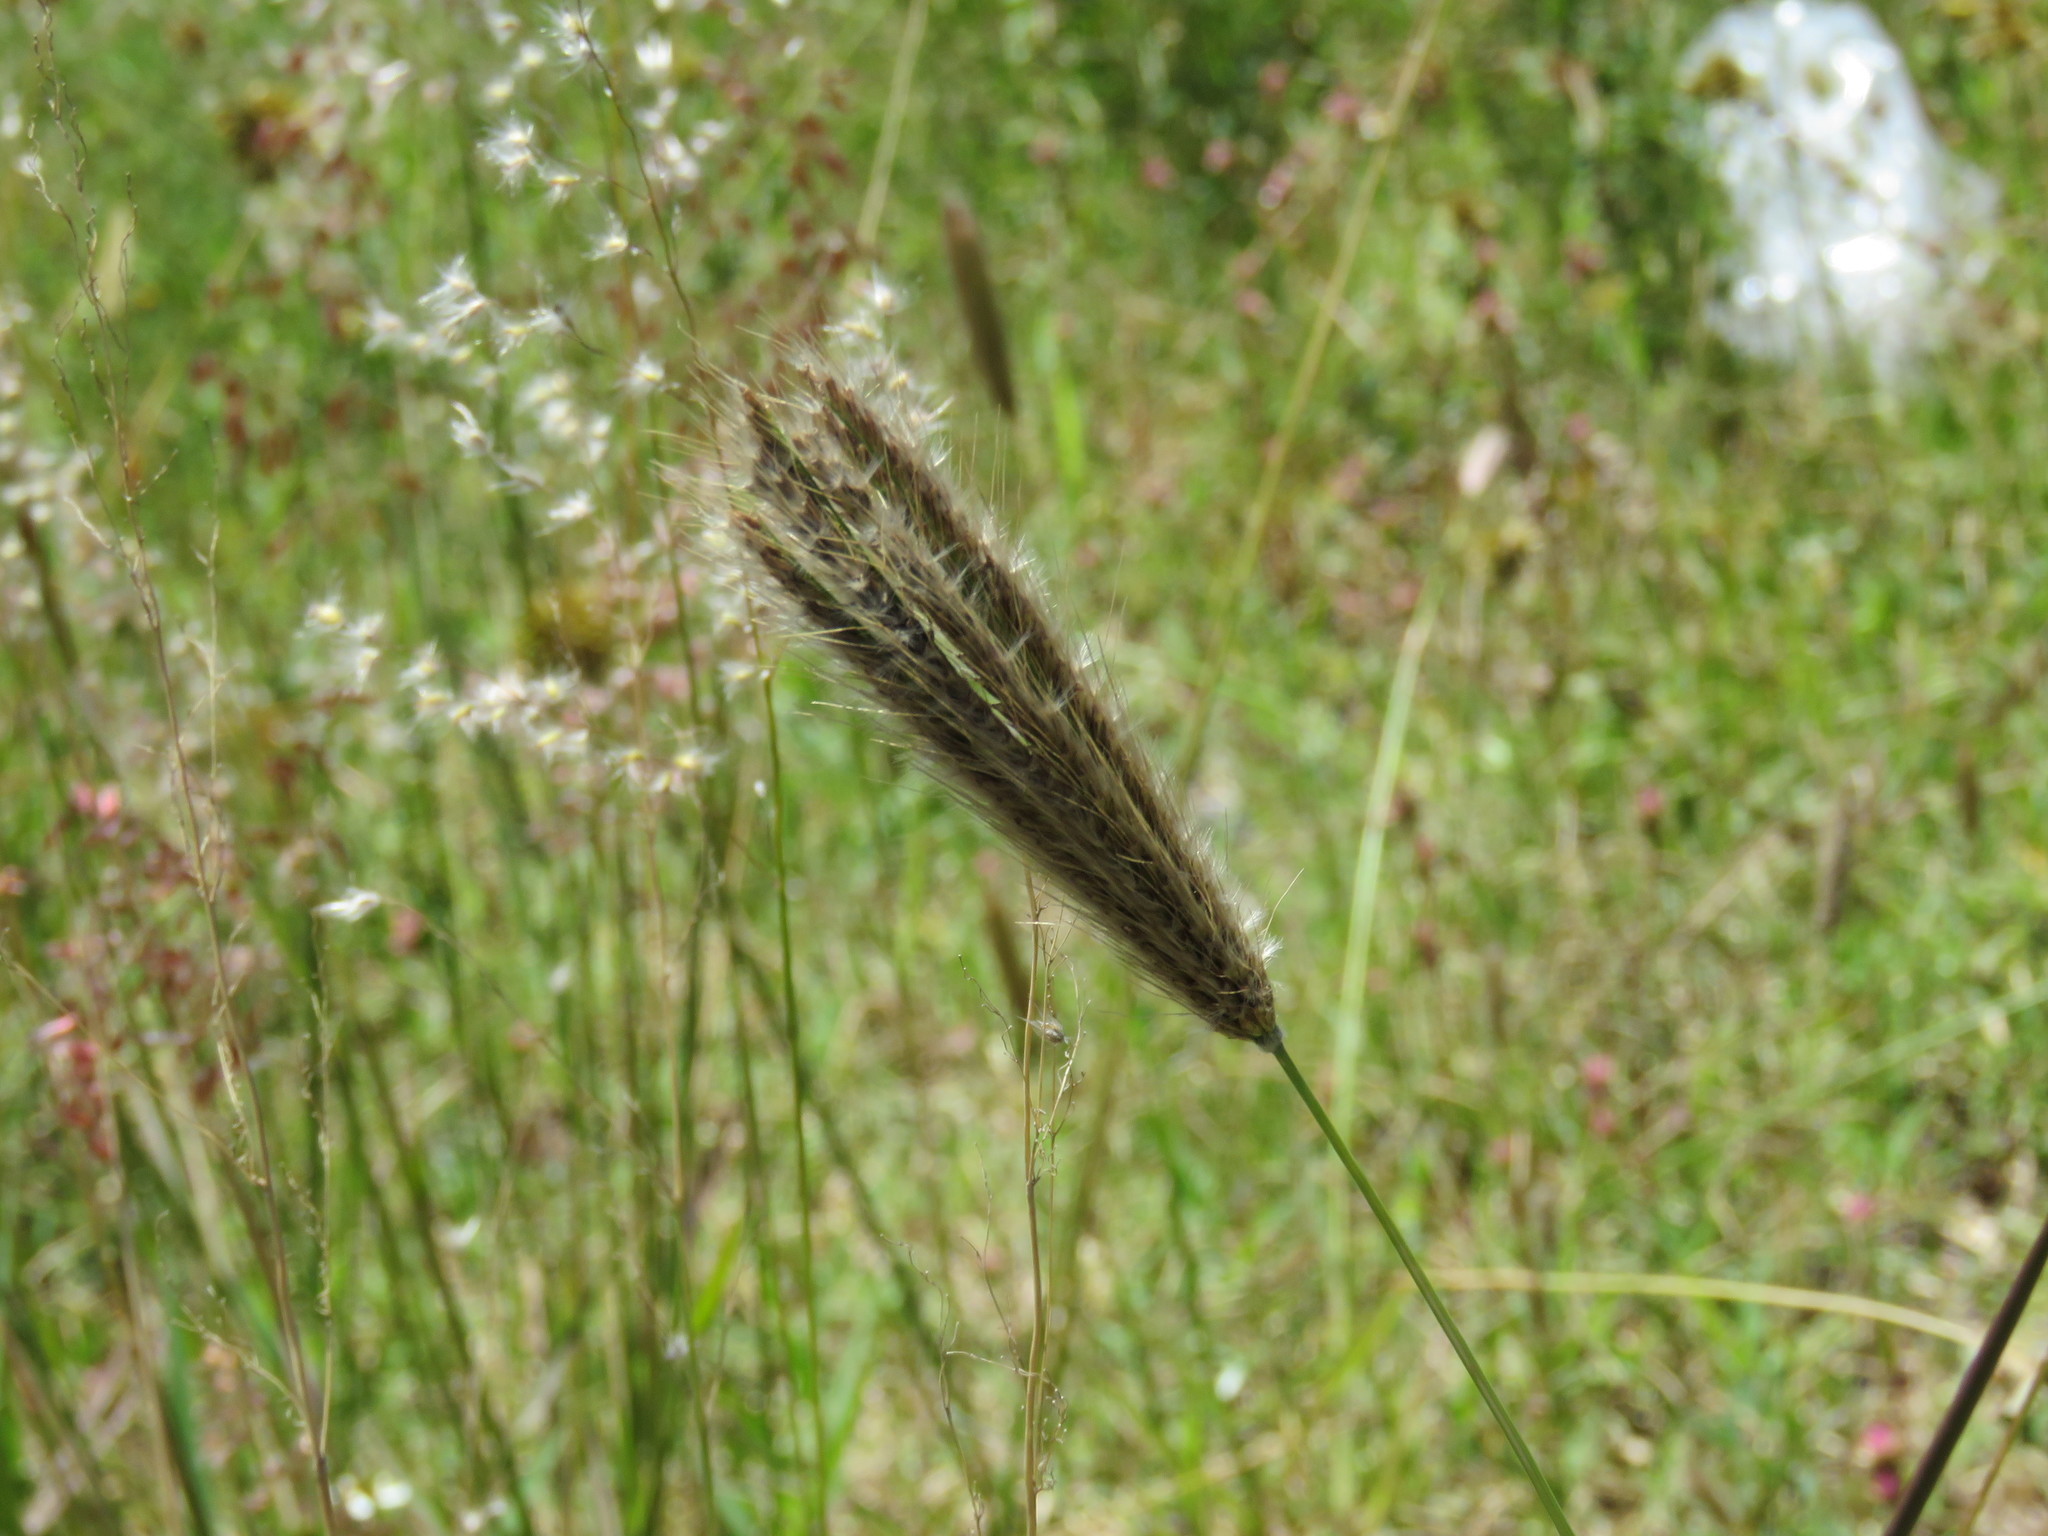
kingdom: Plantae
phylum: Tracheophyta
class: Liliopsida
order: Poales
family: Poaceae
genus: Chloris
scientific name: Chloris virgata
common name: Feathery rhodes-grass
